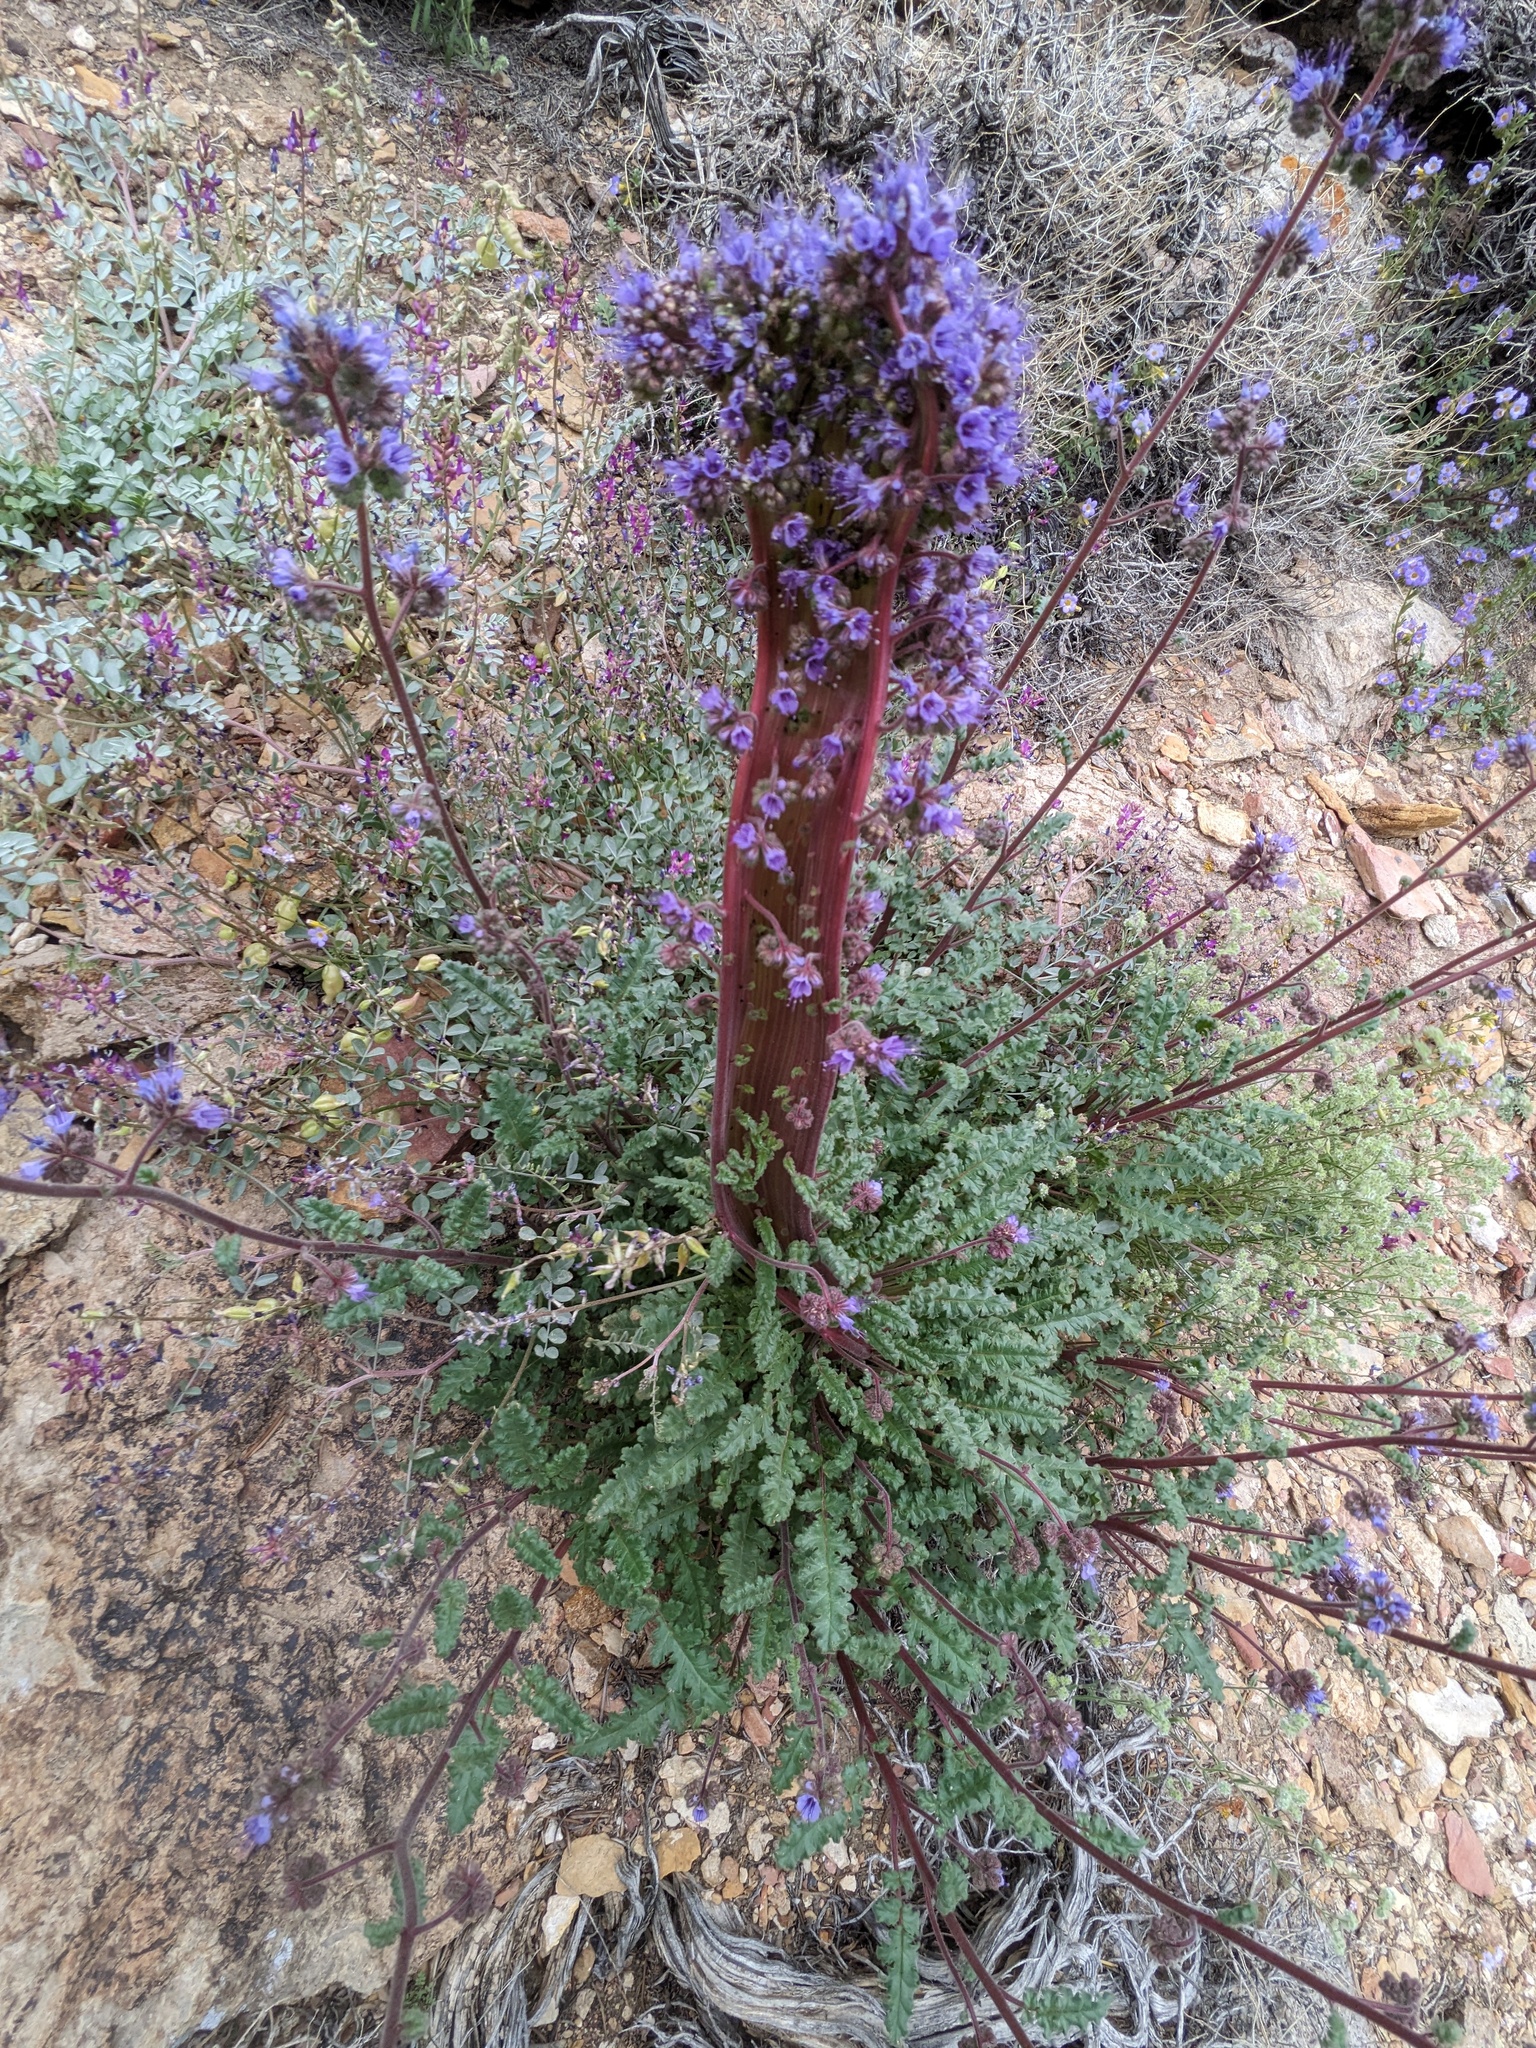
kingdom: Plantae
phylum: Tracheophyta
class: Magnoliopsida
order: Boraginales
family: Hydrophyllaceae
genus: Phacelia
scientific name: Phacelia crenulata
